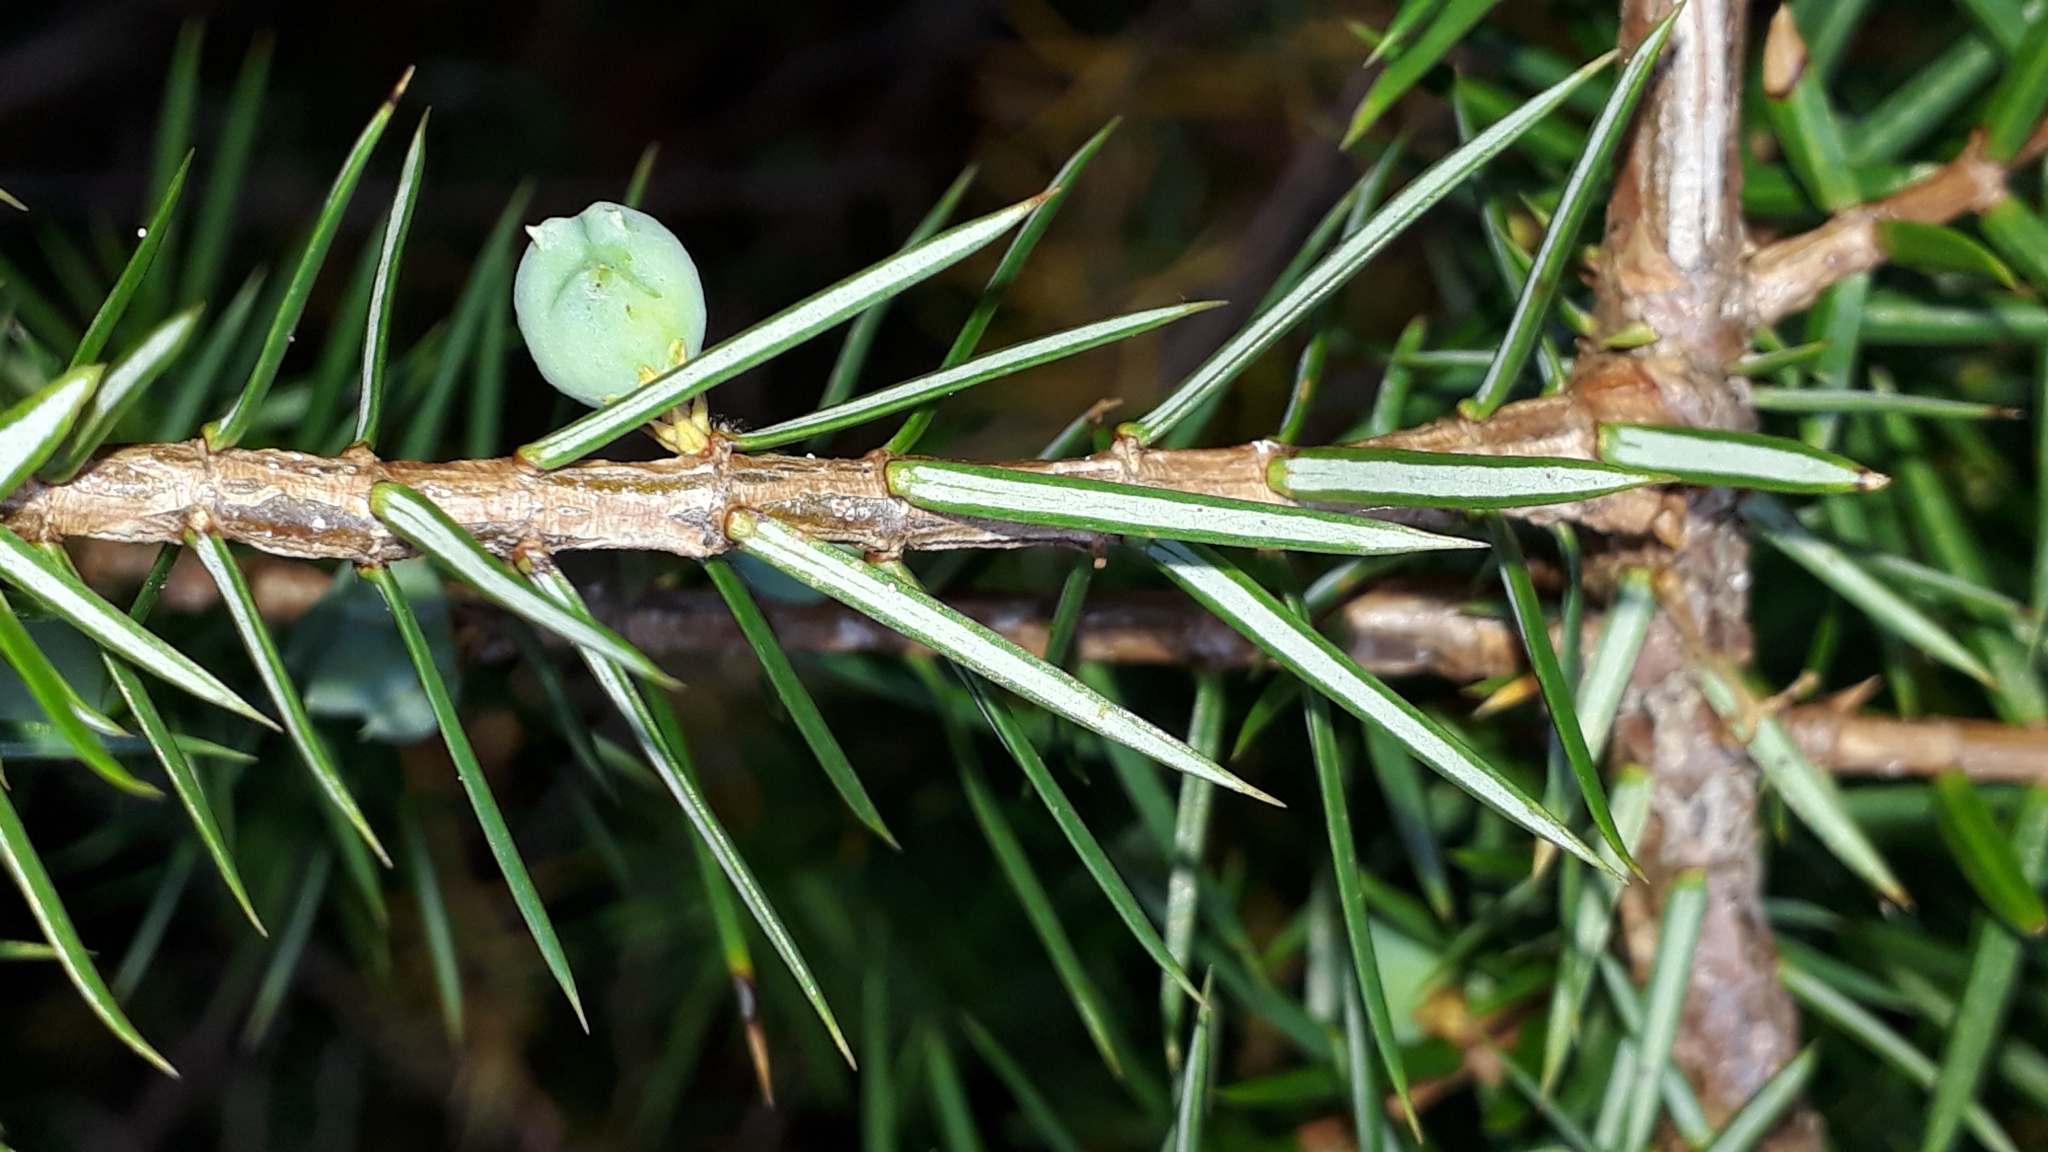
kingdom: Plantae
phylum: Tracheophyta
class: Pinopsida
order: Pinales
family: Cupressaceae
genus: Juniperus
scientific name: Juniperus communis
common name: Common juniper
